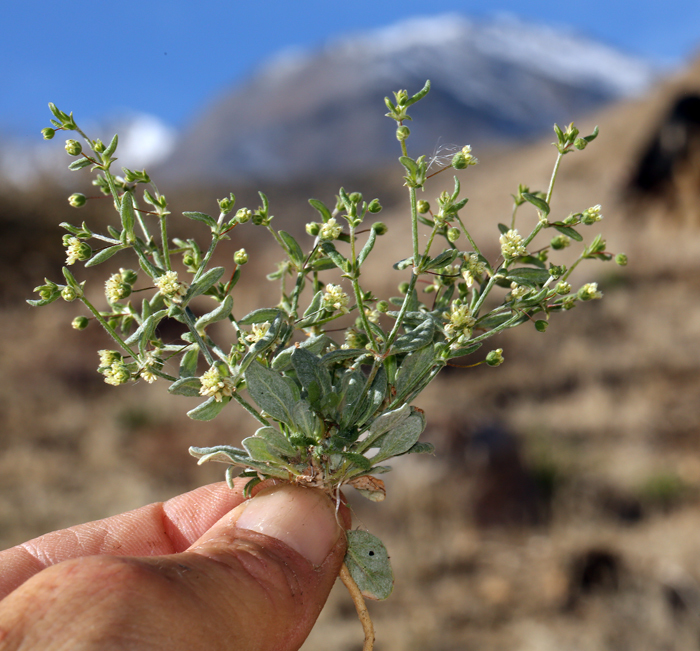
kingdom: Plantae
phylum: Tracheophyta
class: Magnoliopsida
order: Caryophyllales
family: Polygonaceae
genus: Eriogonum
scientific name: Eriogonum maculatum
